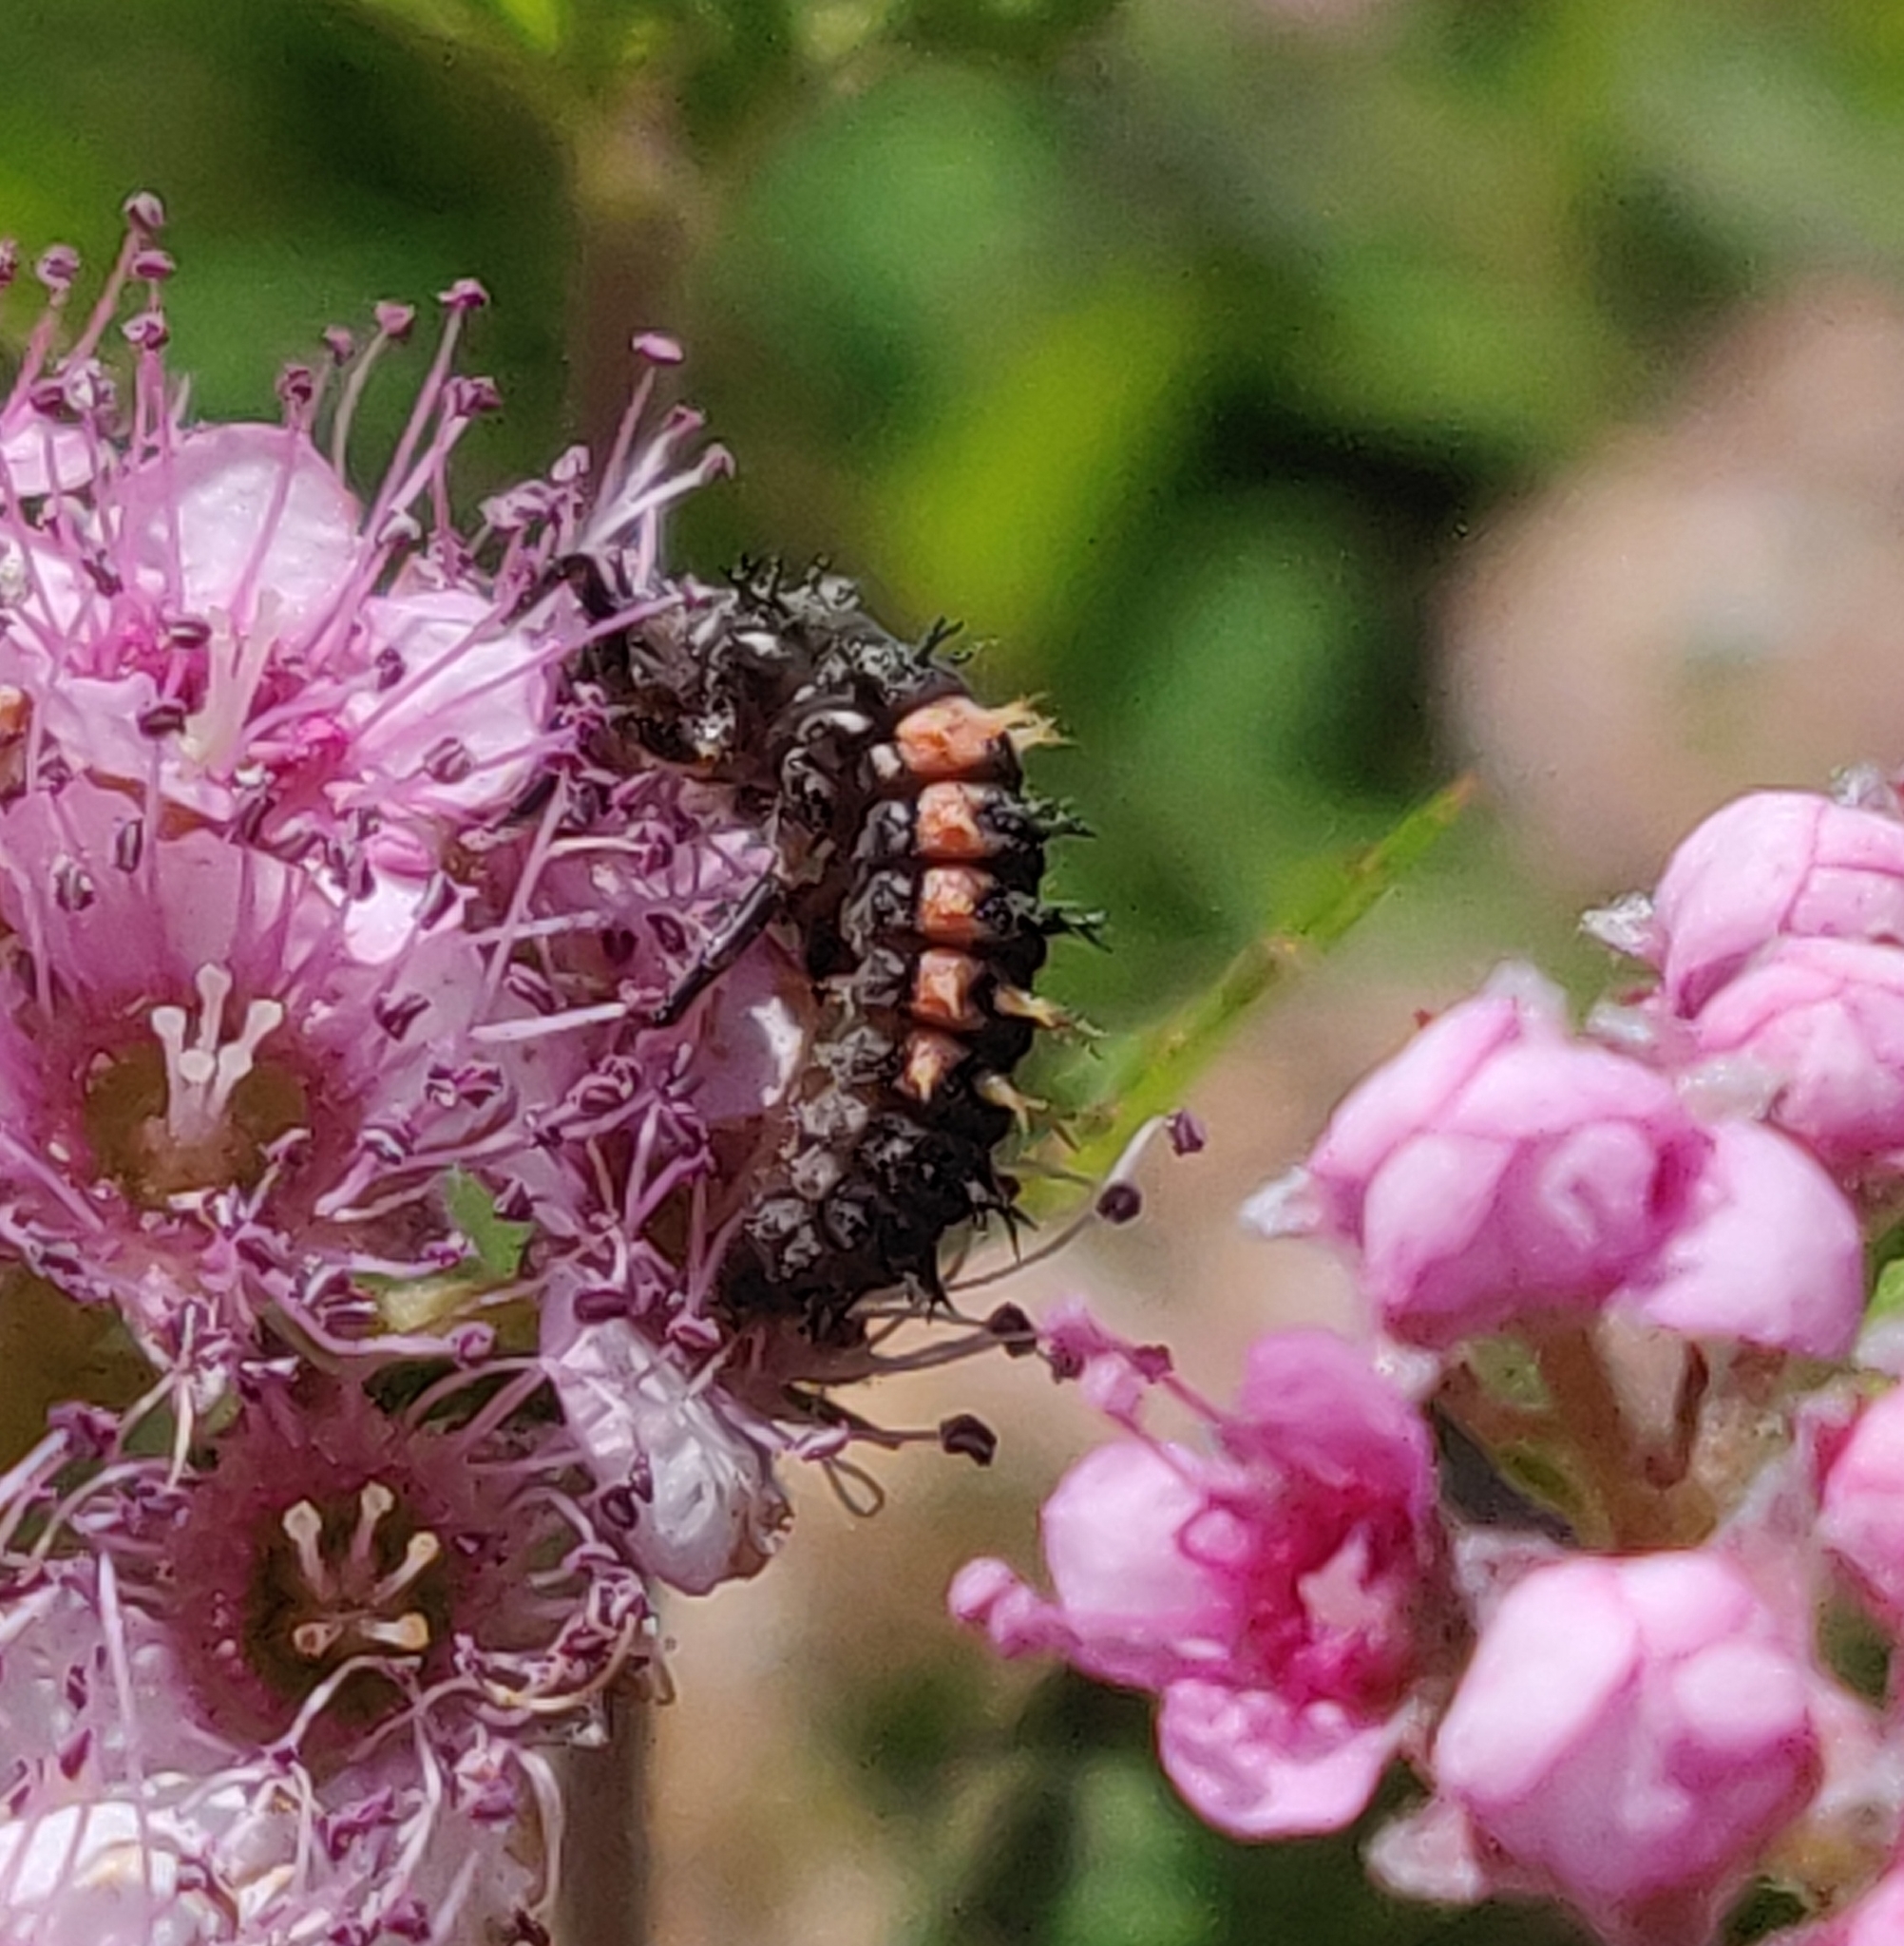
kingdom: Animalia
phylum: Arthropoda
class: Insecta
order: Coleoptera
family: Coccinellidae
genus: Harmonia
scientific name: Harmonia axyridis
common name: Harlequin ladybird
